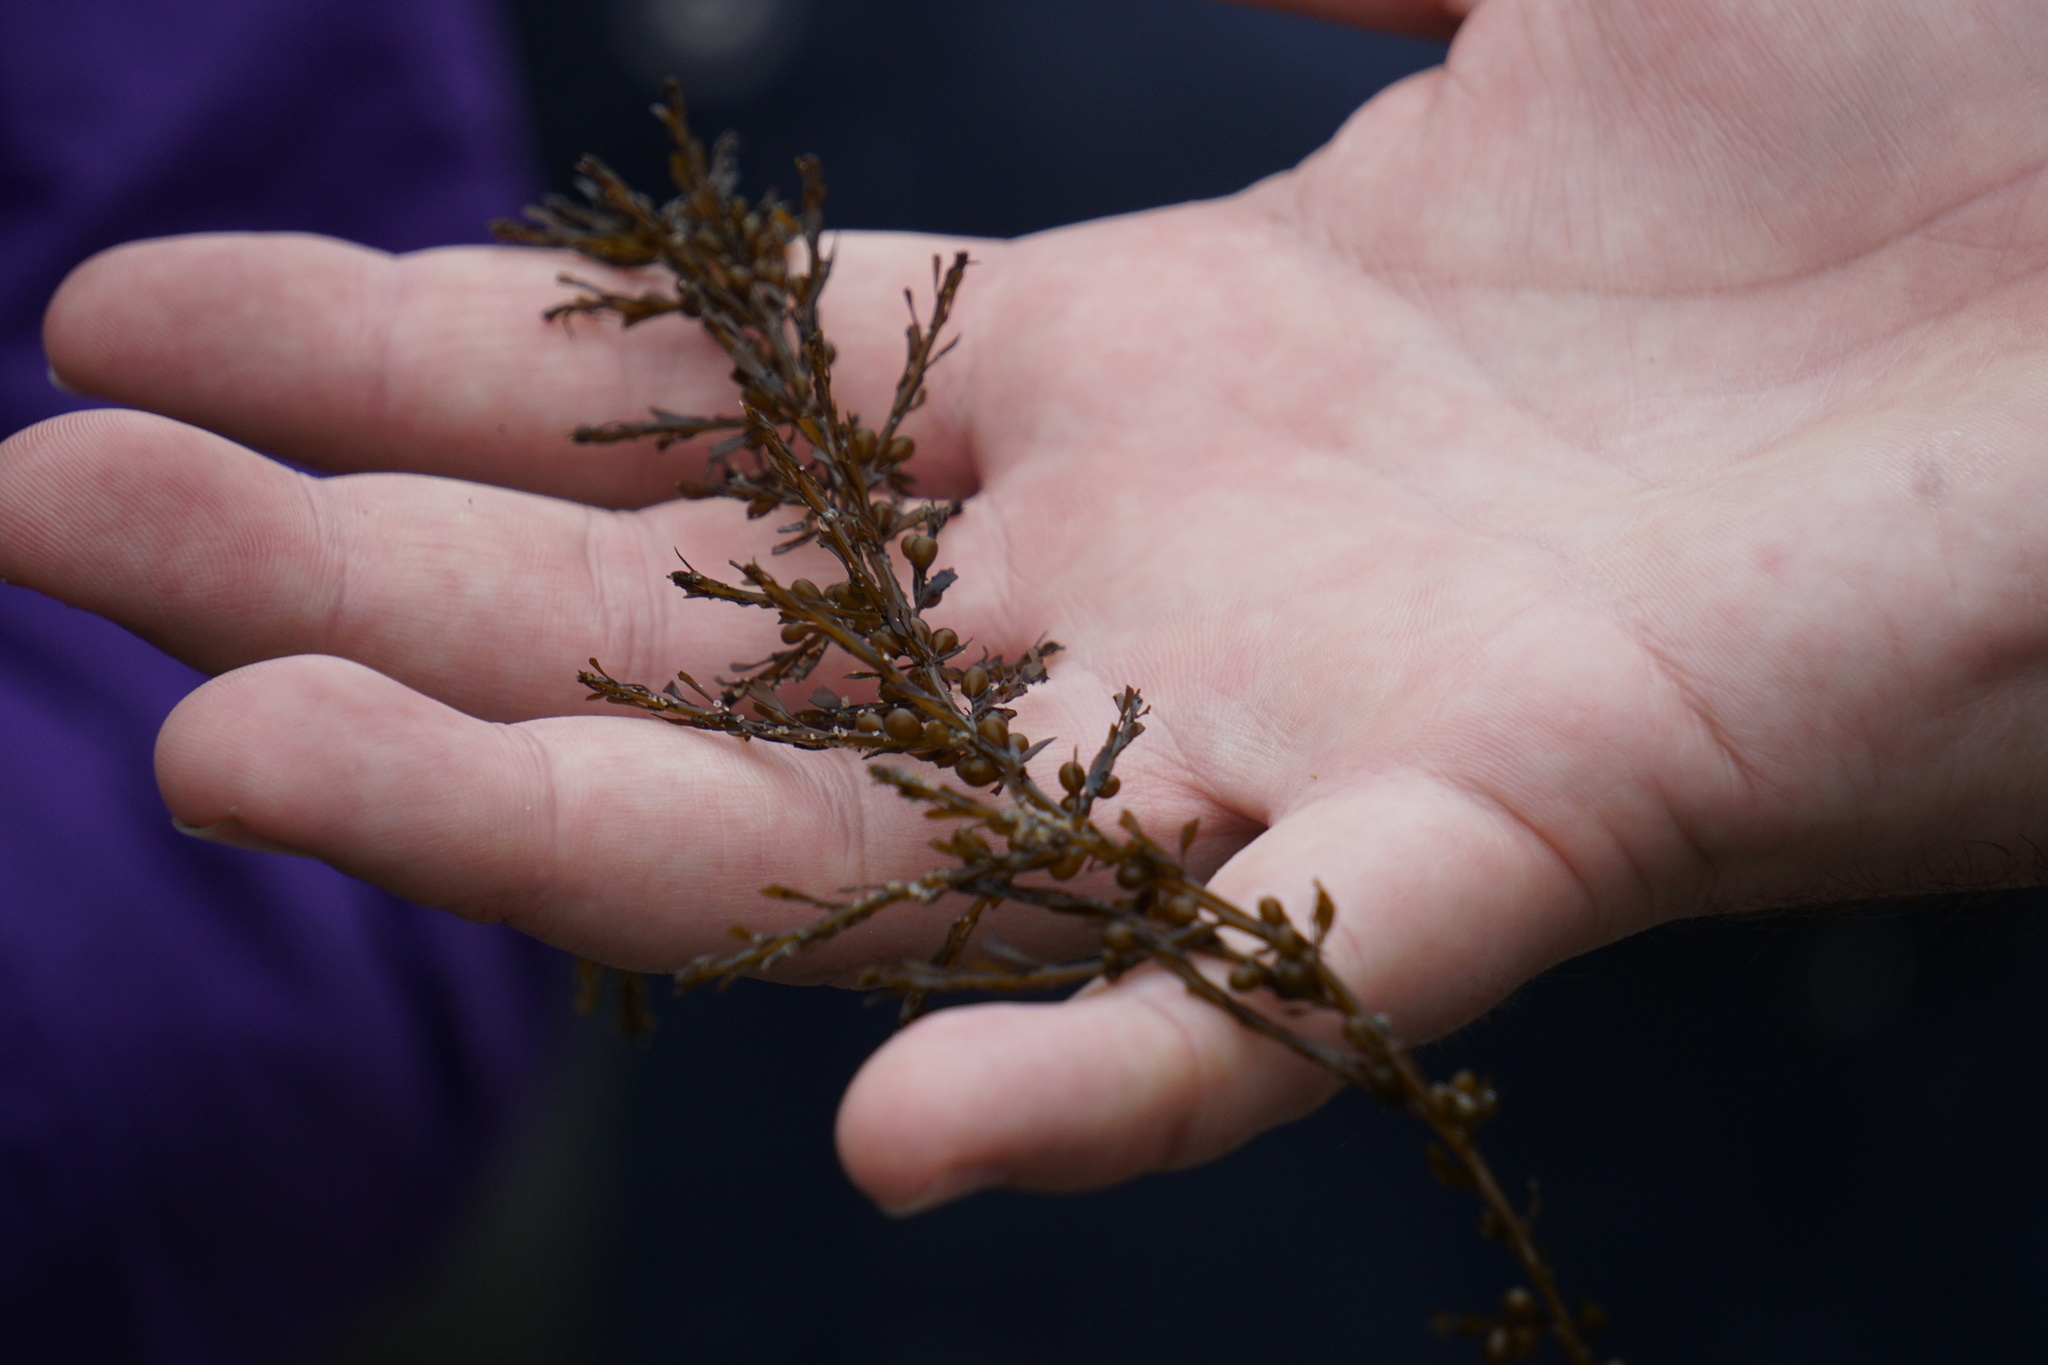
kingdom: Chromista
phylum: Ochrophyta
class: Phaeophyceae
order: Fucales
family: Sargassaceae
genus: Sargassum
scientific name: Sargassum muticum
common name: Japweed
